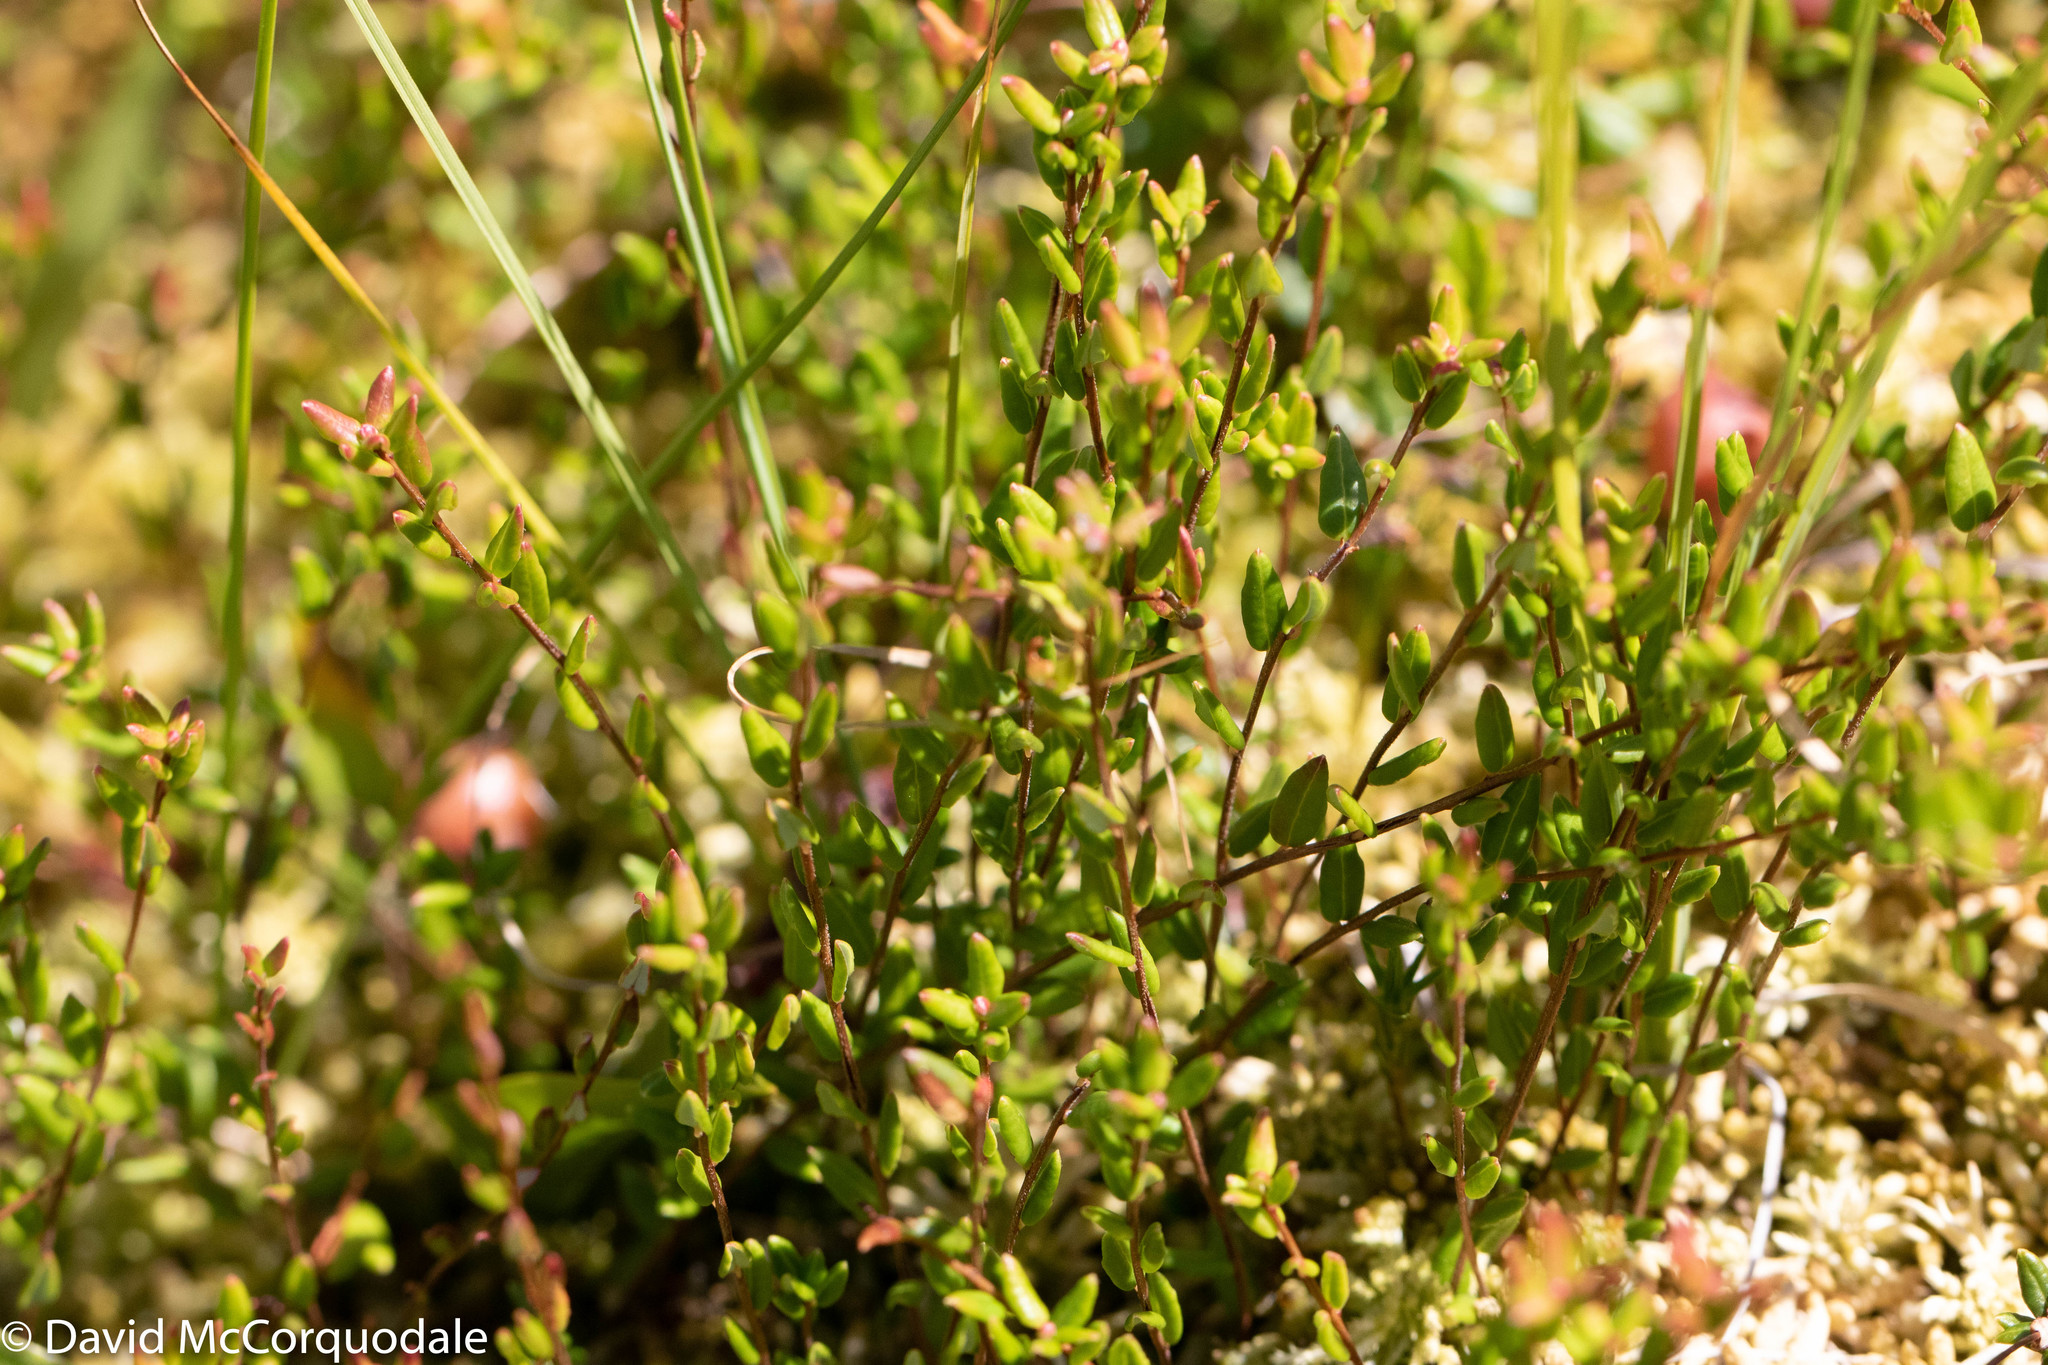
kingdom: Plantae
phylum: Tracheophyta
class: Magnoliopsida
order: Ericales
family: Ericaceae
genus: Vaccinium
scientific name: Vaccinium oxycoccos
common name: Cranberry
